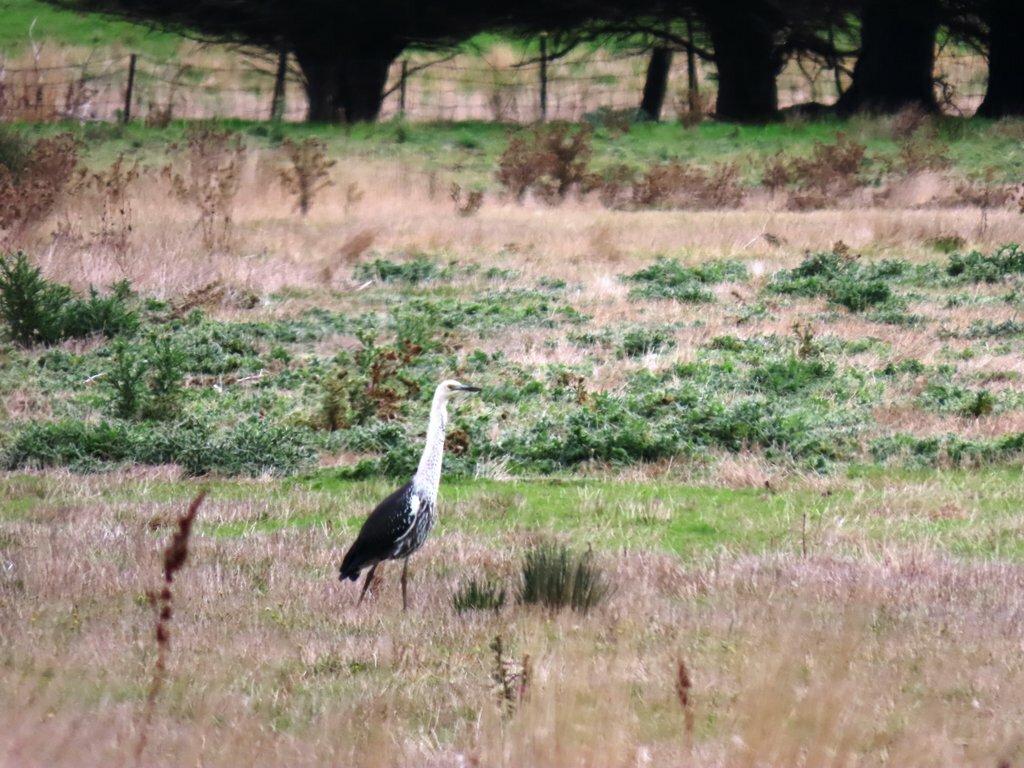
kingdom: Animalia
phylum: Chordata
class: Aves
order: Pelecaniformes
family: Ardeidae
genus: Ardea
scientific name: Ardea pacifica
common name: White-necked heron
